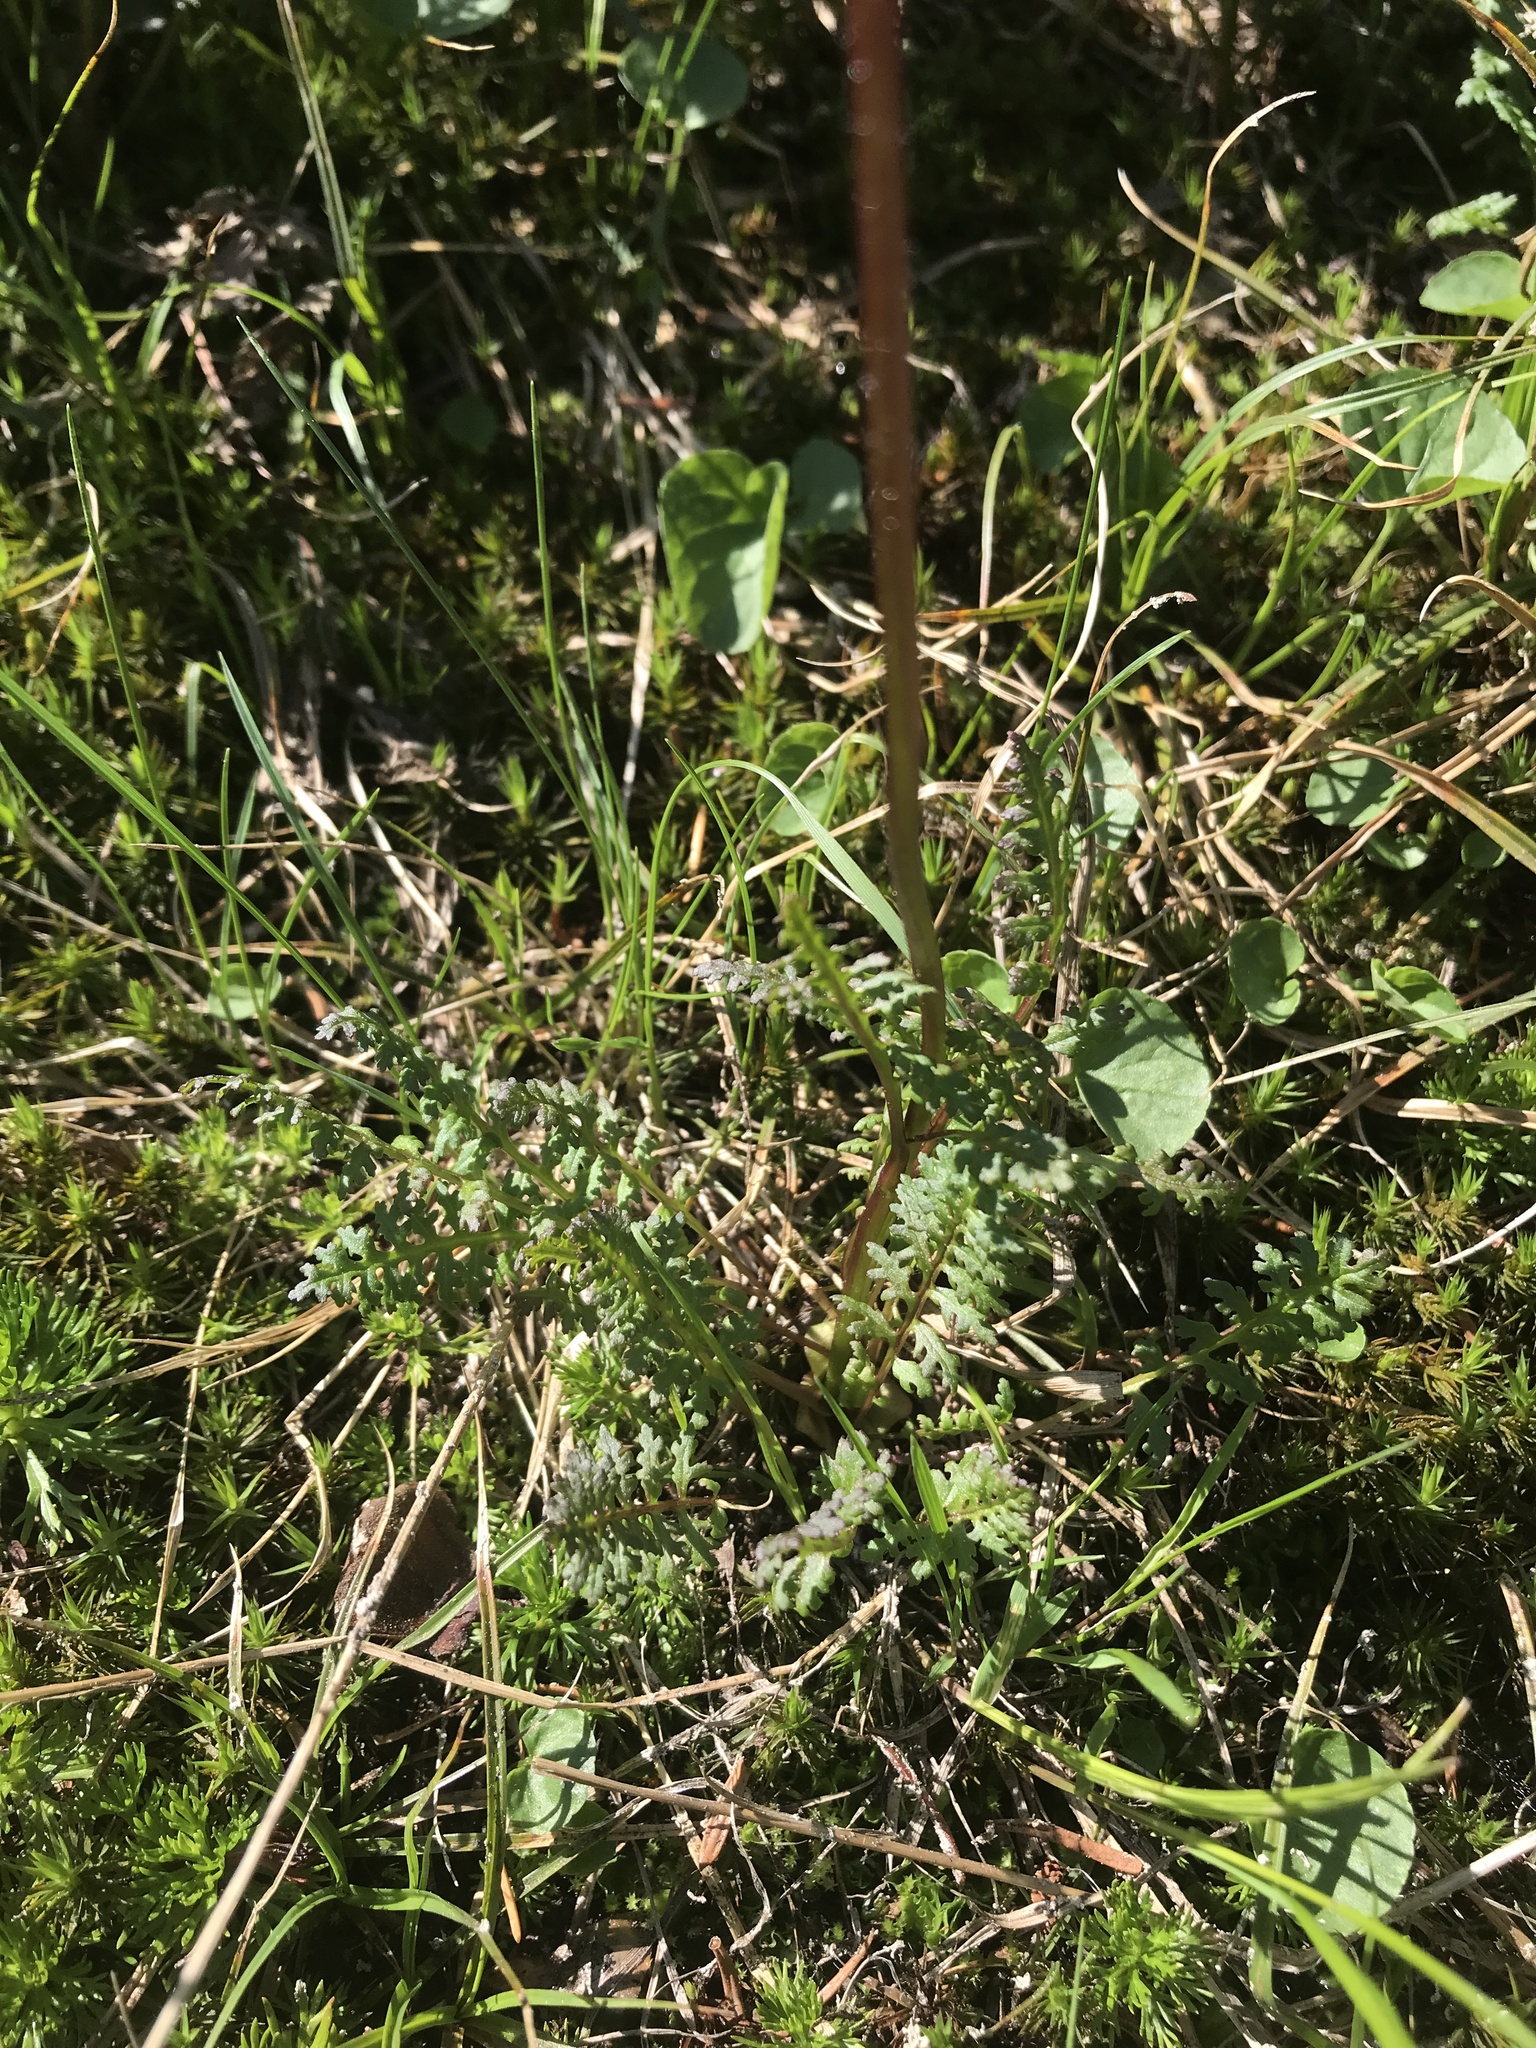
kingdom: Plantae
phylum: Tracheophyta
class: Magnoliopsida
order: Lamiales
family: Orobanchaceae
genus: Pedicularis
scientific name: Pedicularis ornithorhynchos
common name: Bird's-beak lousewort
